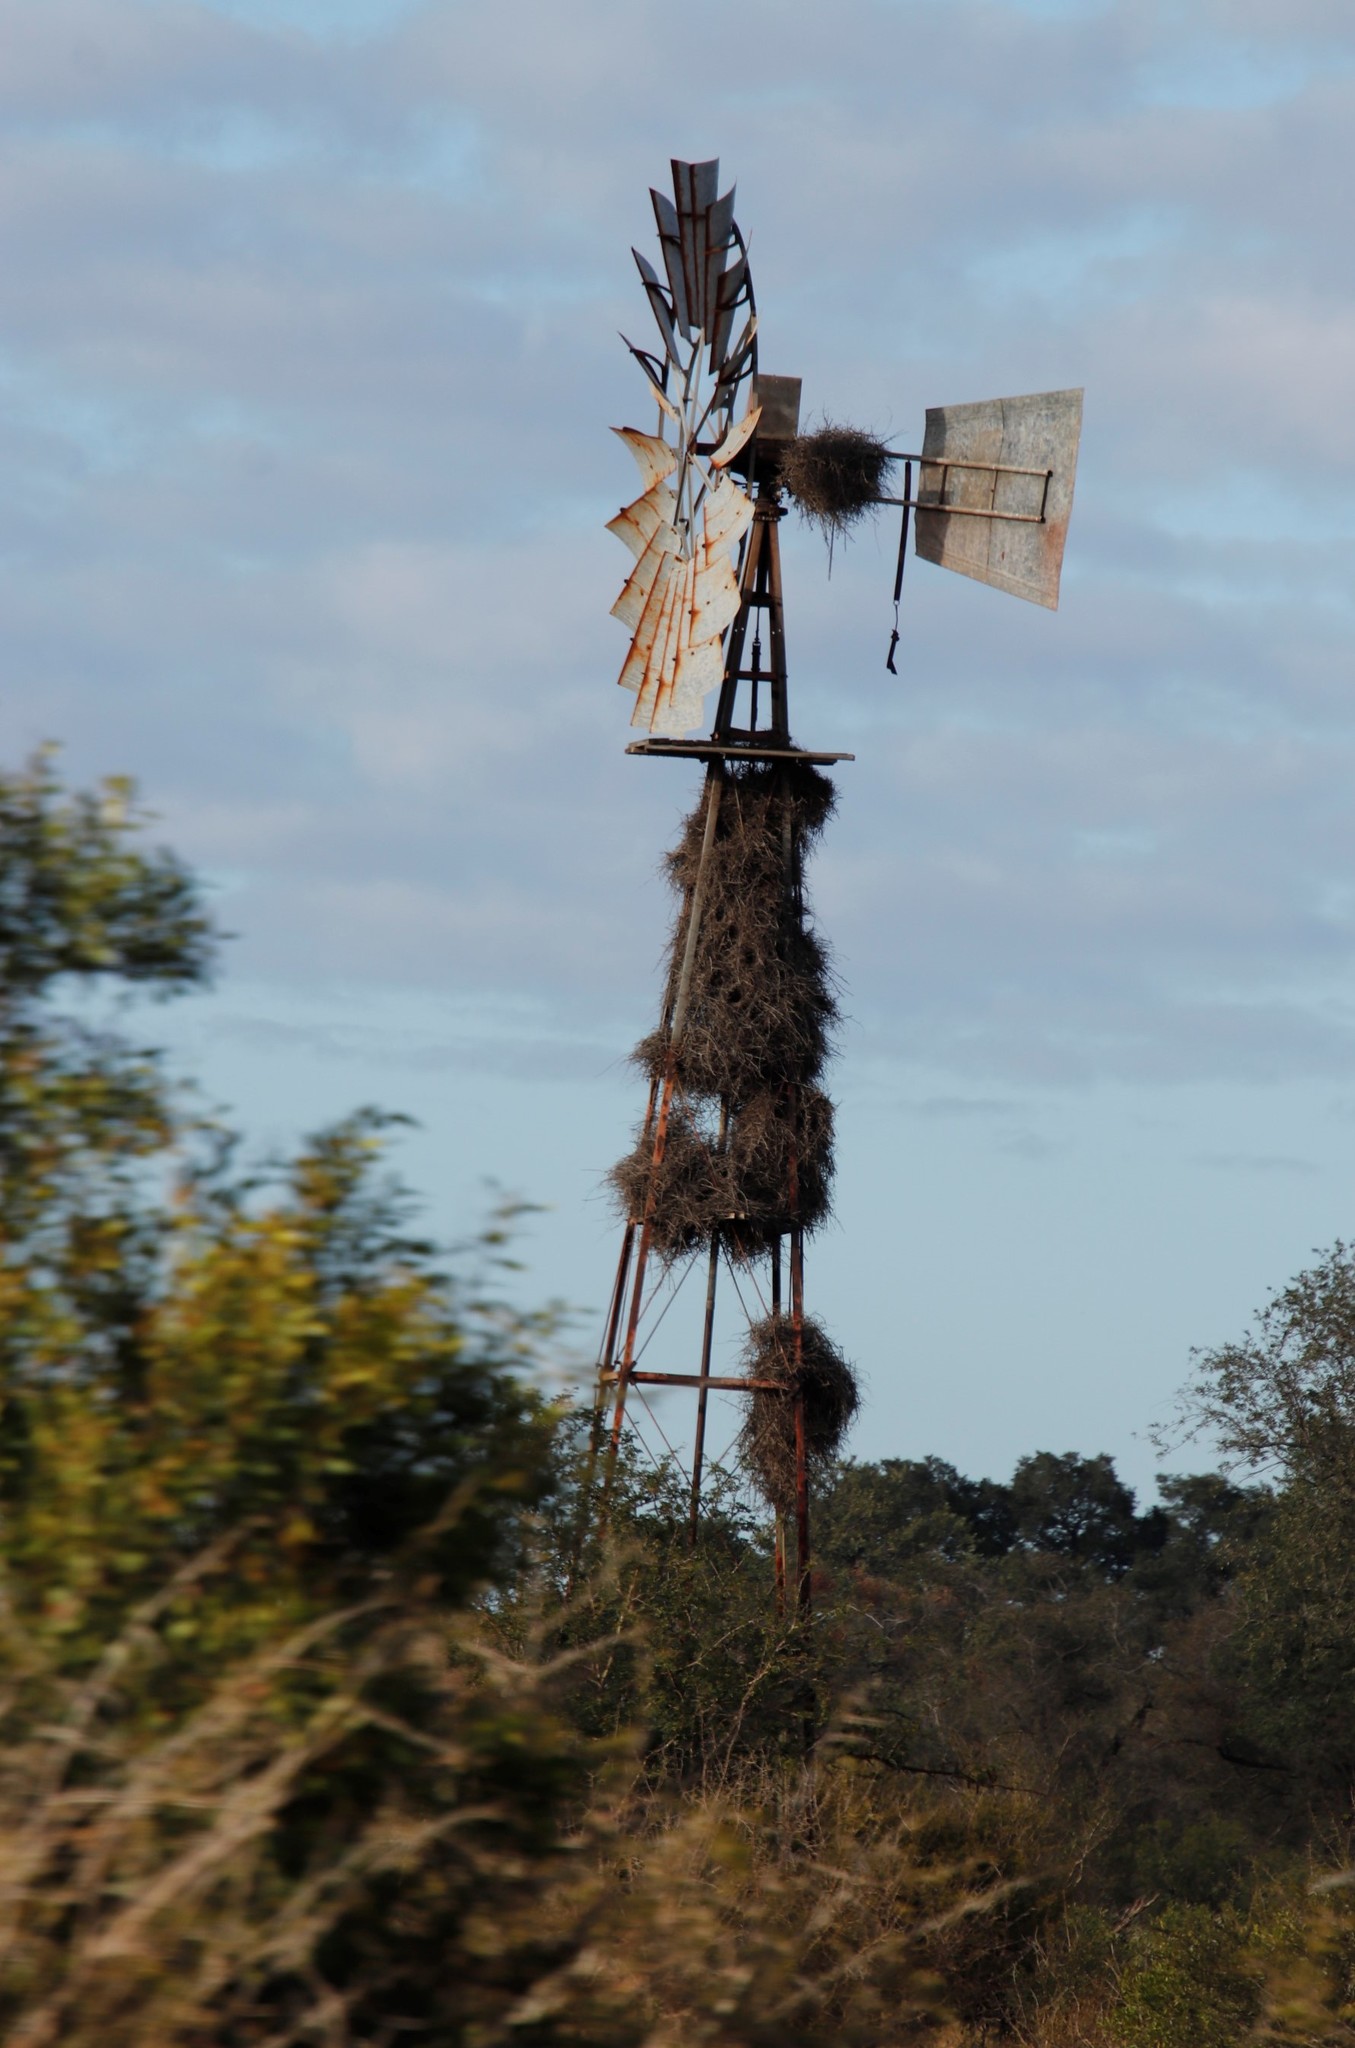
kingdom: Animalia
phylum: Chordata
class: Aves
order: Passeriformes
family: Ploceidae
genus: Bubalornis
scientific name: Bubalornis niger
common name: Red-billed buffalo weaver
